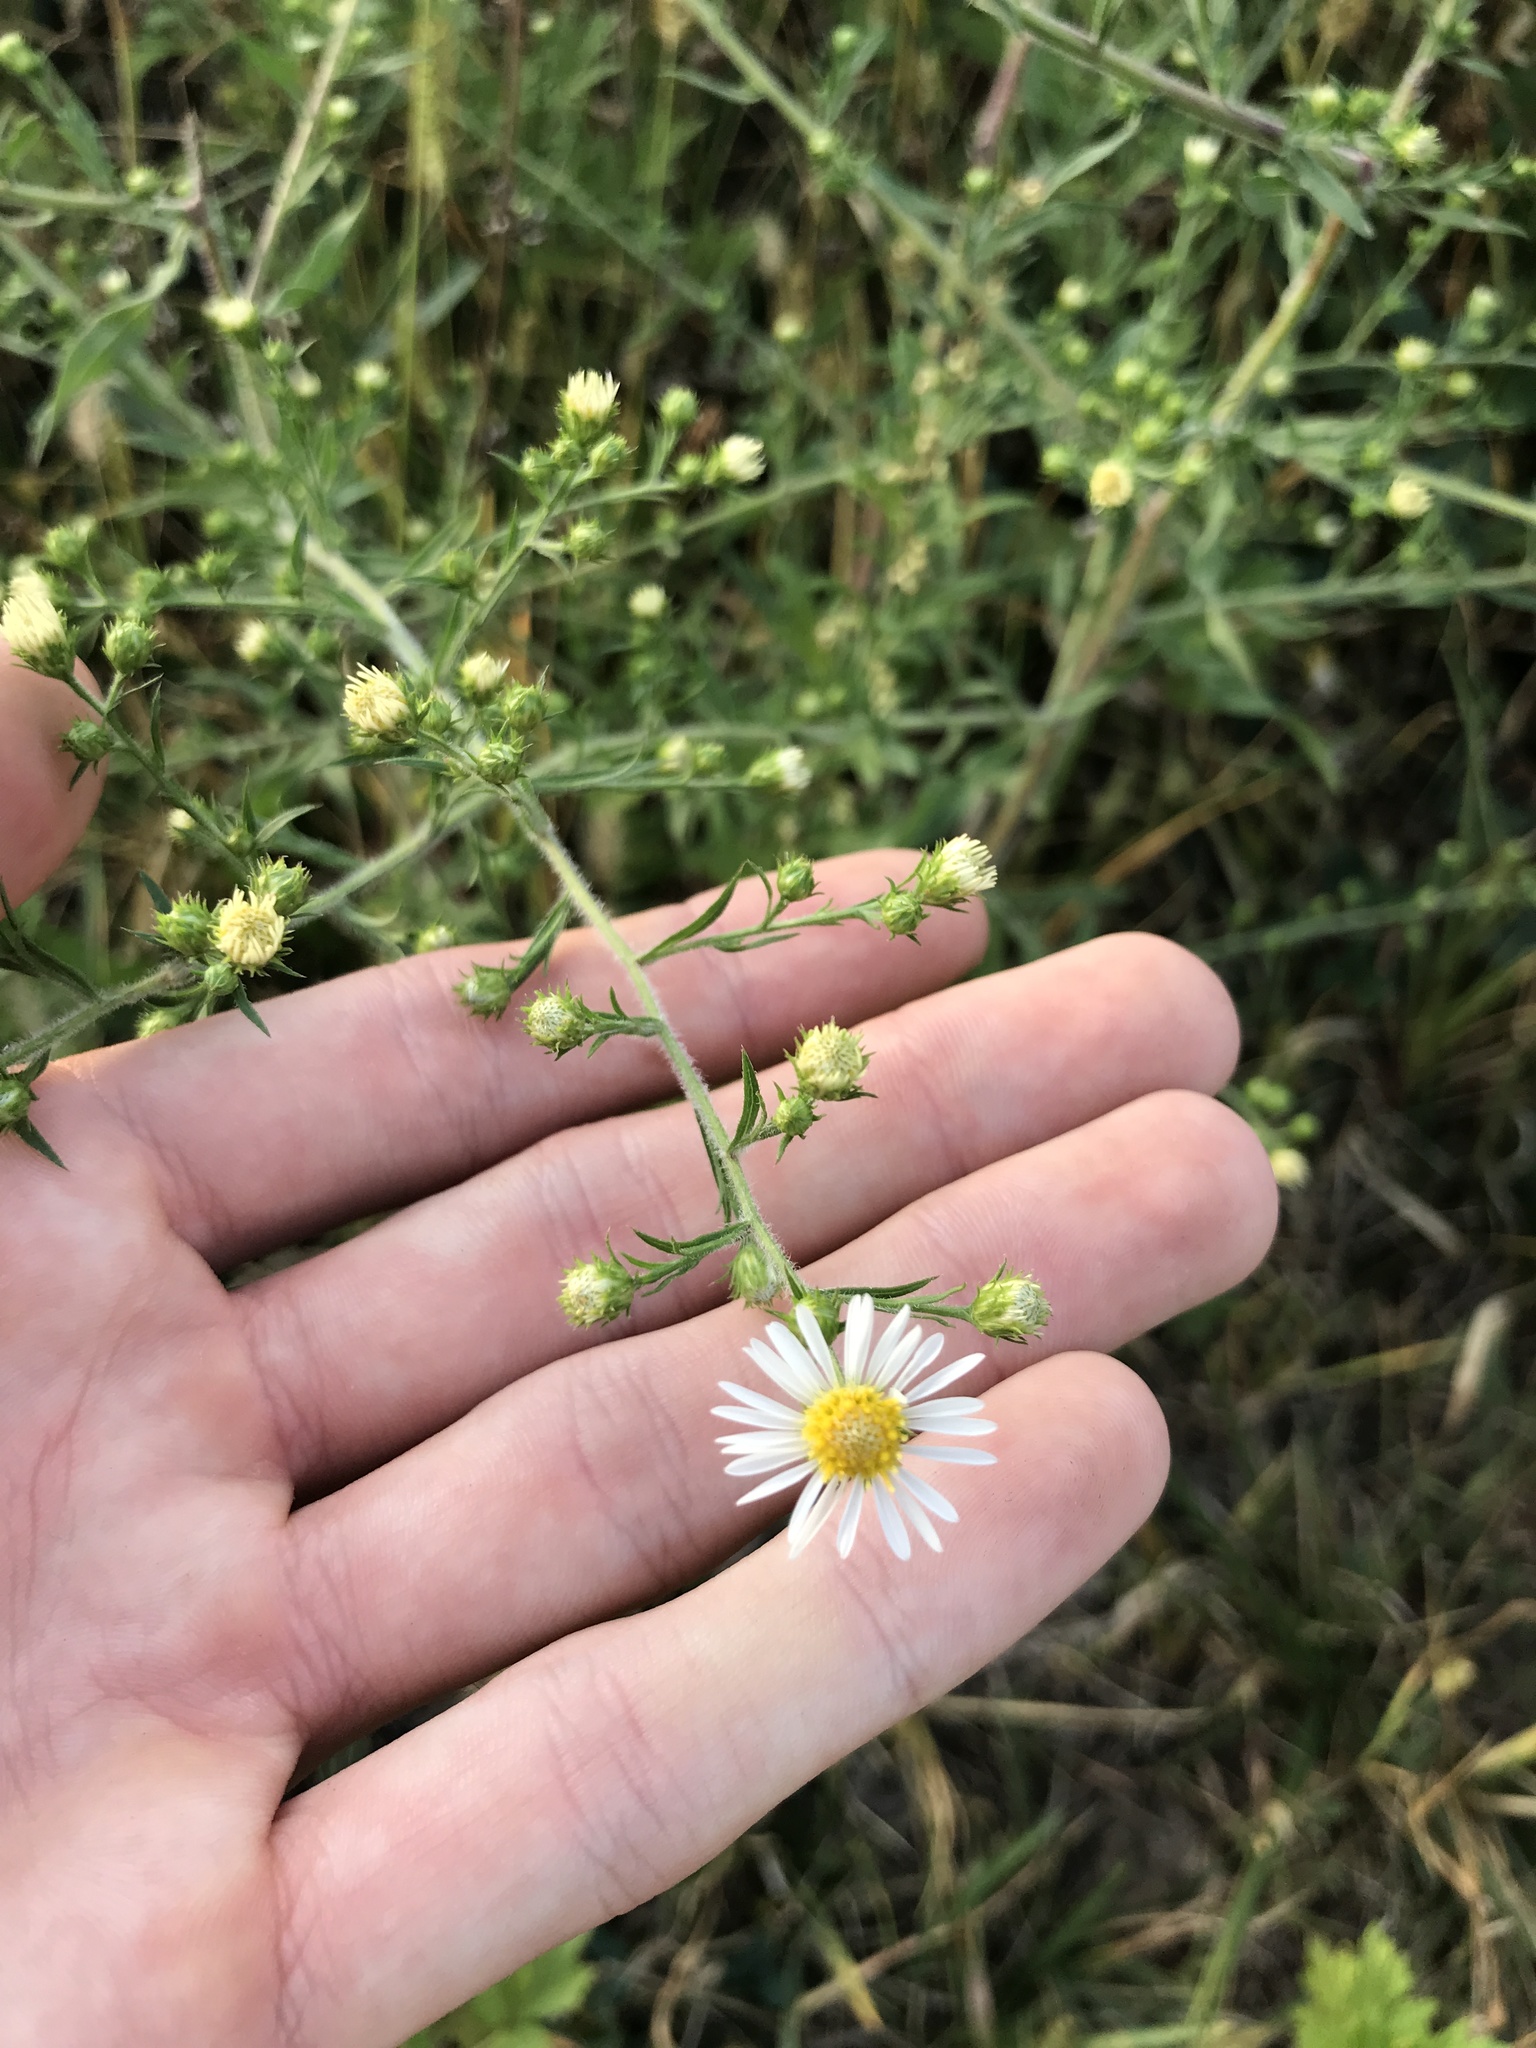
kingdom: Plantae
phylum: Tracheophyta
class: Magnoliopsida
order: Asterales
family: Asteraceae
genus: Symphyotrichum
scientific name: Symphyotrichum pilosum
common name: Awl aster
